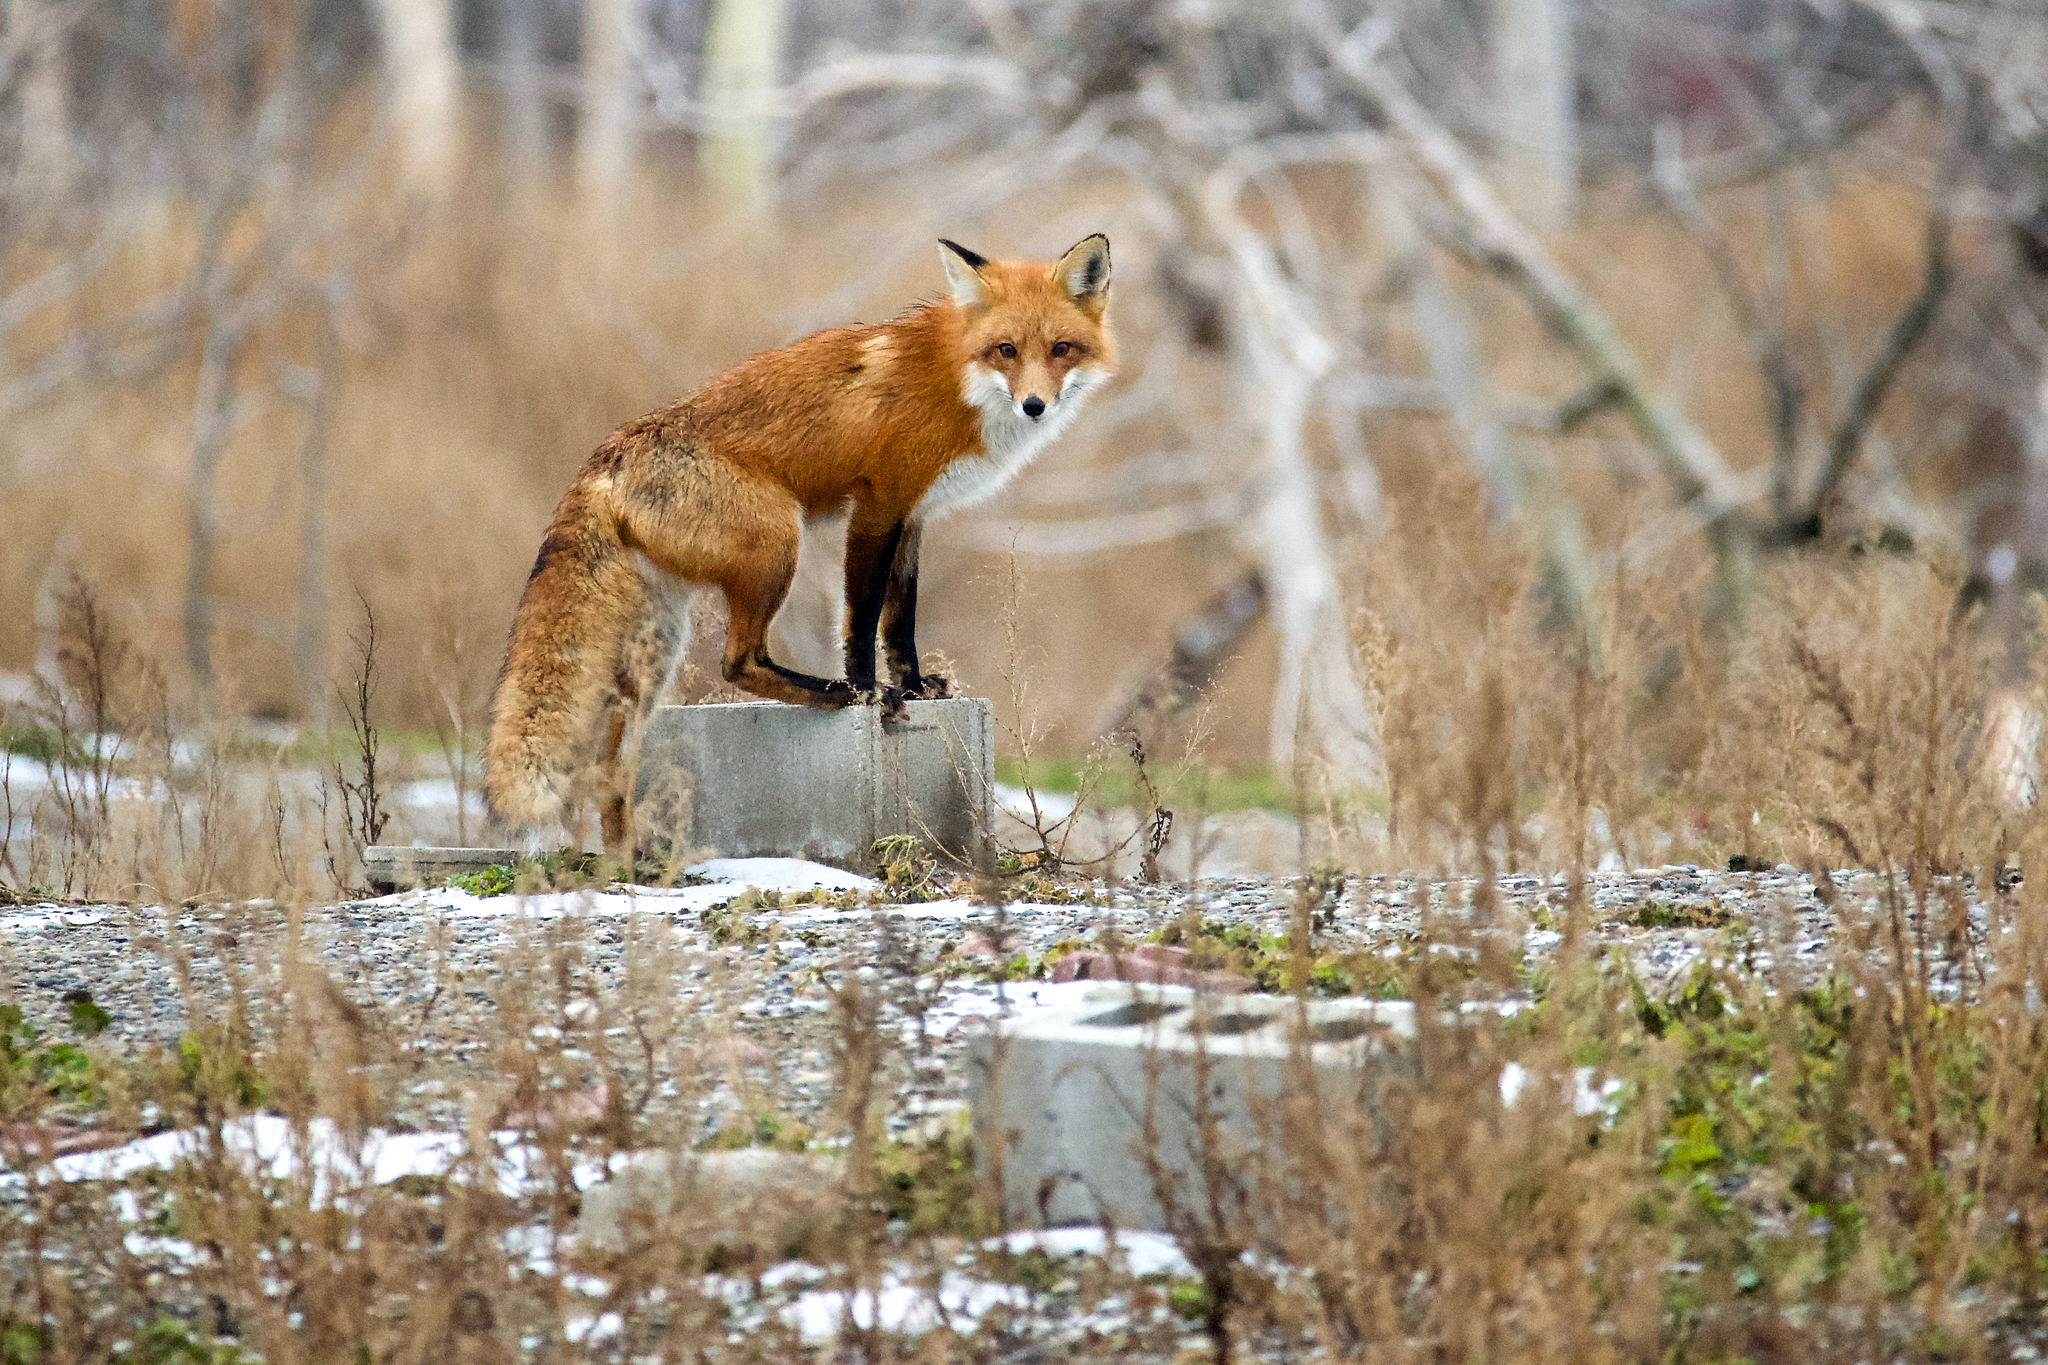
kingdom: Animalia
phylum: Chordata
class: Mammalia
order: Carnivora
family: Canidae
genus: Vulpes
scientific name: Vulpes vulpes
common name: Red fox
